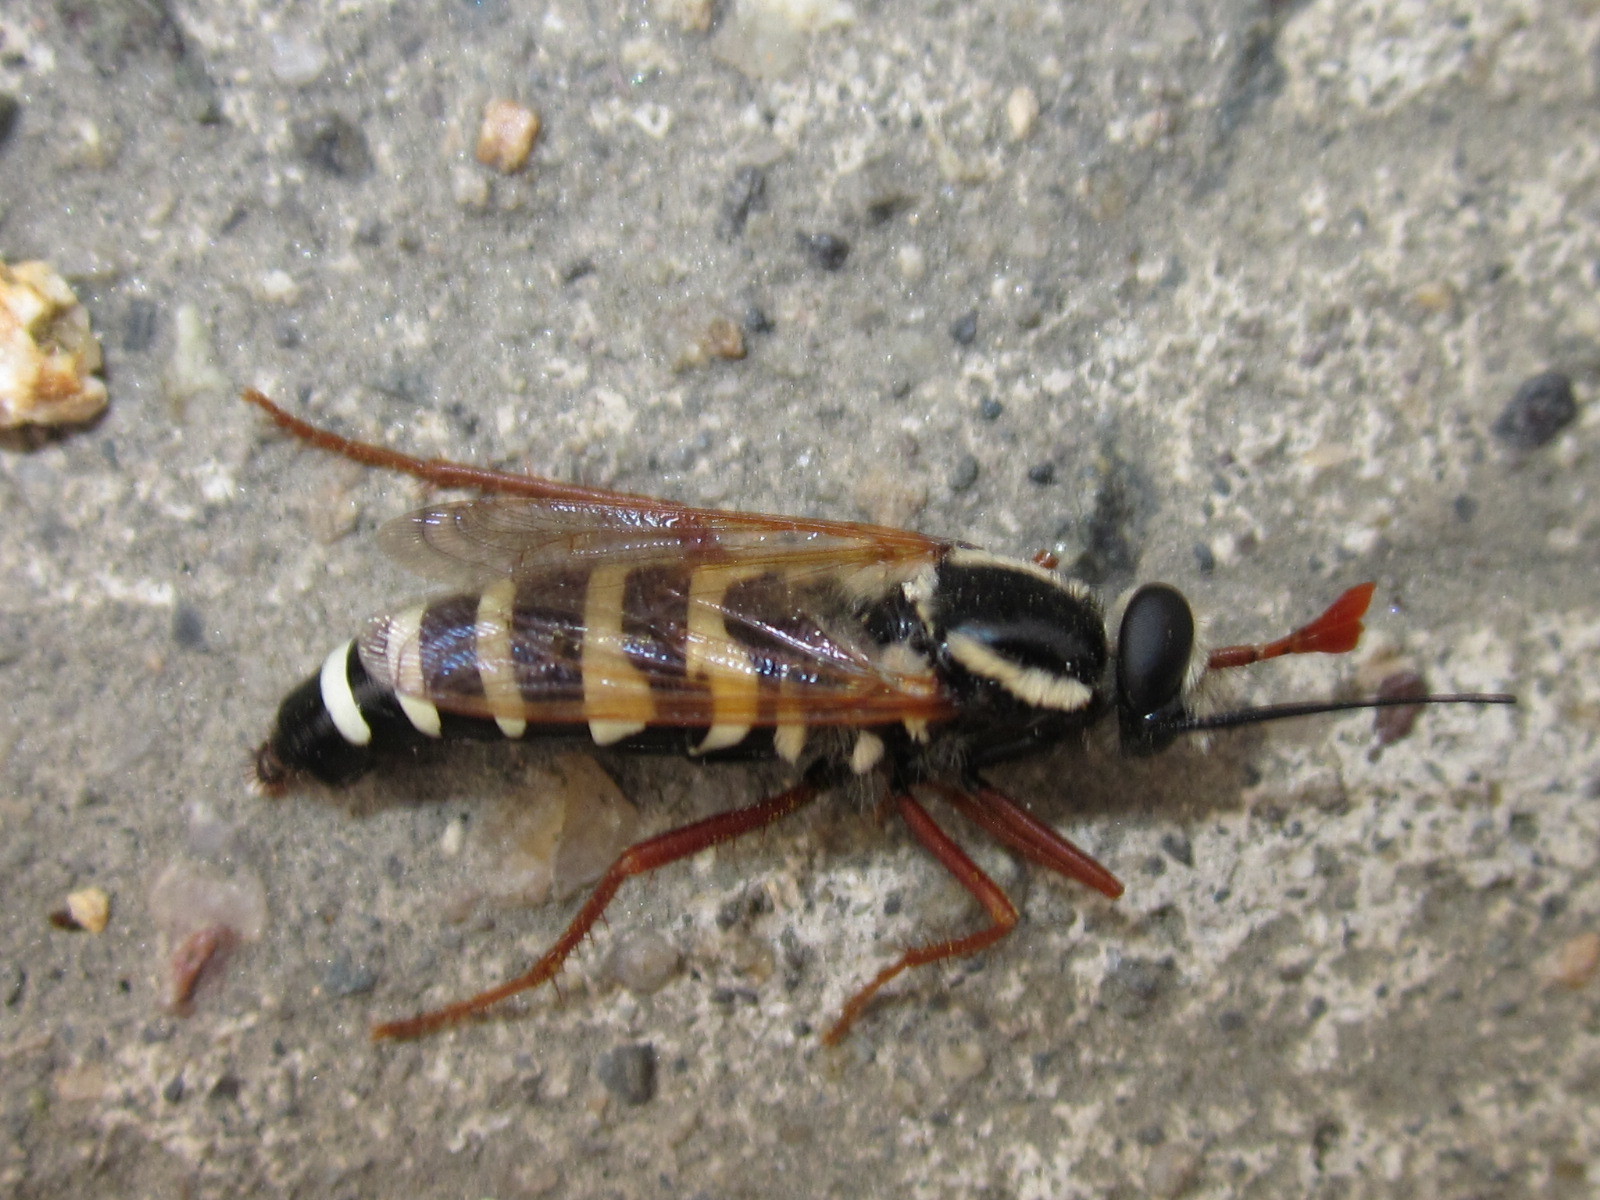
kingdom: Animalia
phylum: Arthropoda
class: Insecta
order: Diptera
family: Mydidae
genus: Mitrodetus
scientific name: Mitrodetus dentitarsis
